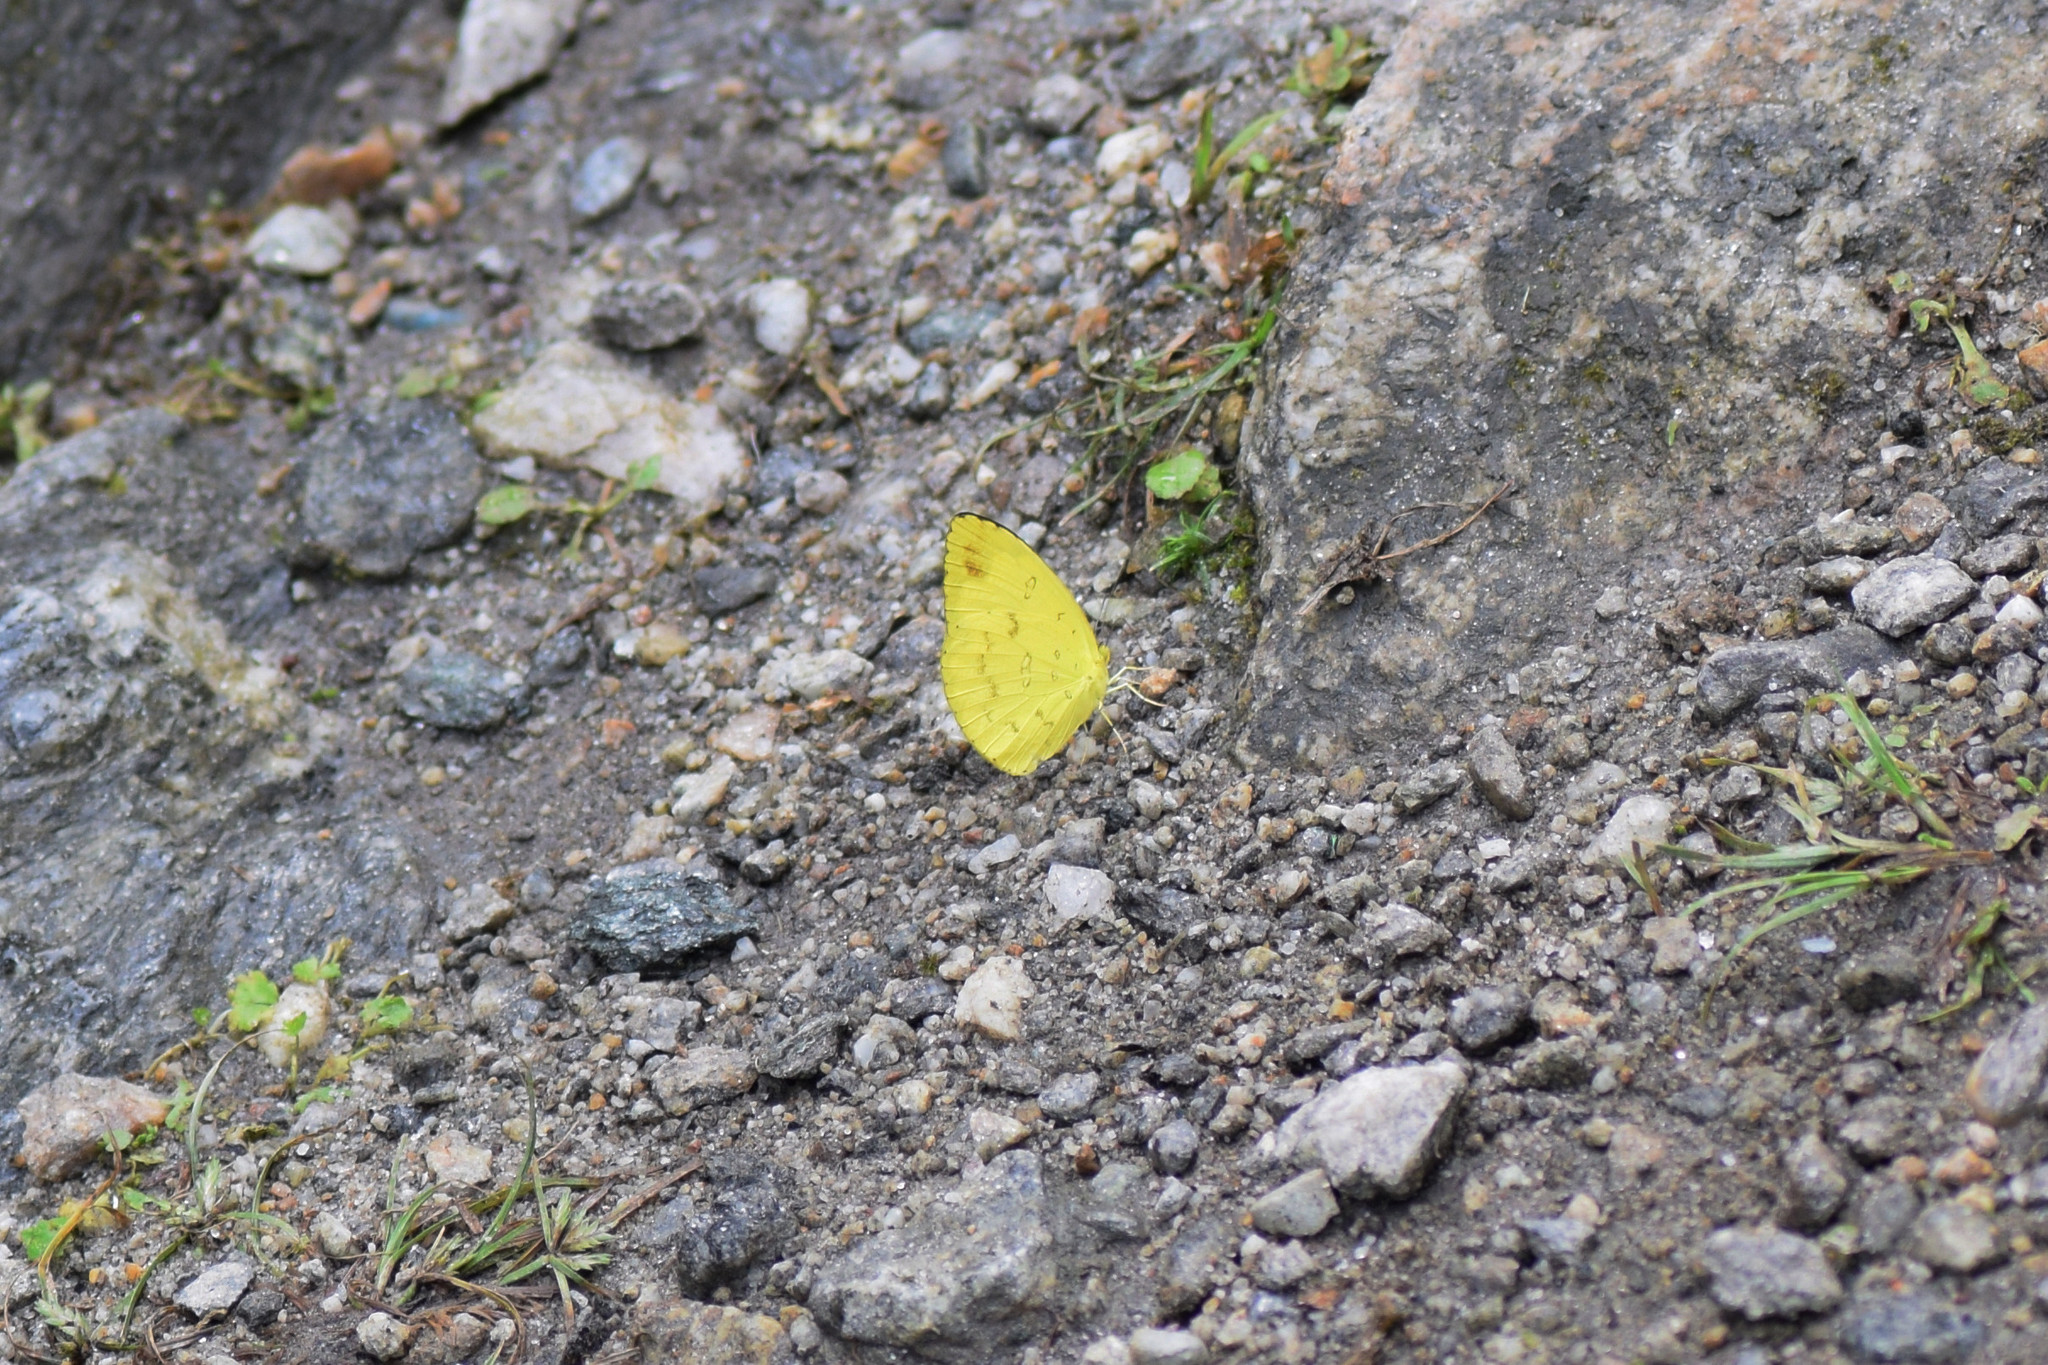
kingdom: Animalia
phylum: Arthropoda
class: Insecta
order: Lepidoptera
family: Pieridae
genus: Eurema
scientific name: Eurema hecabe
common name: Pale grass yellow
